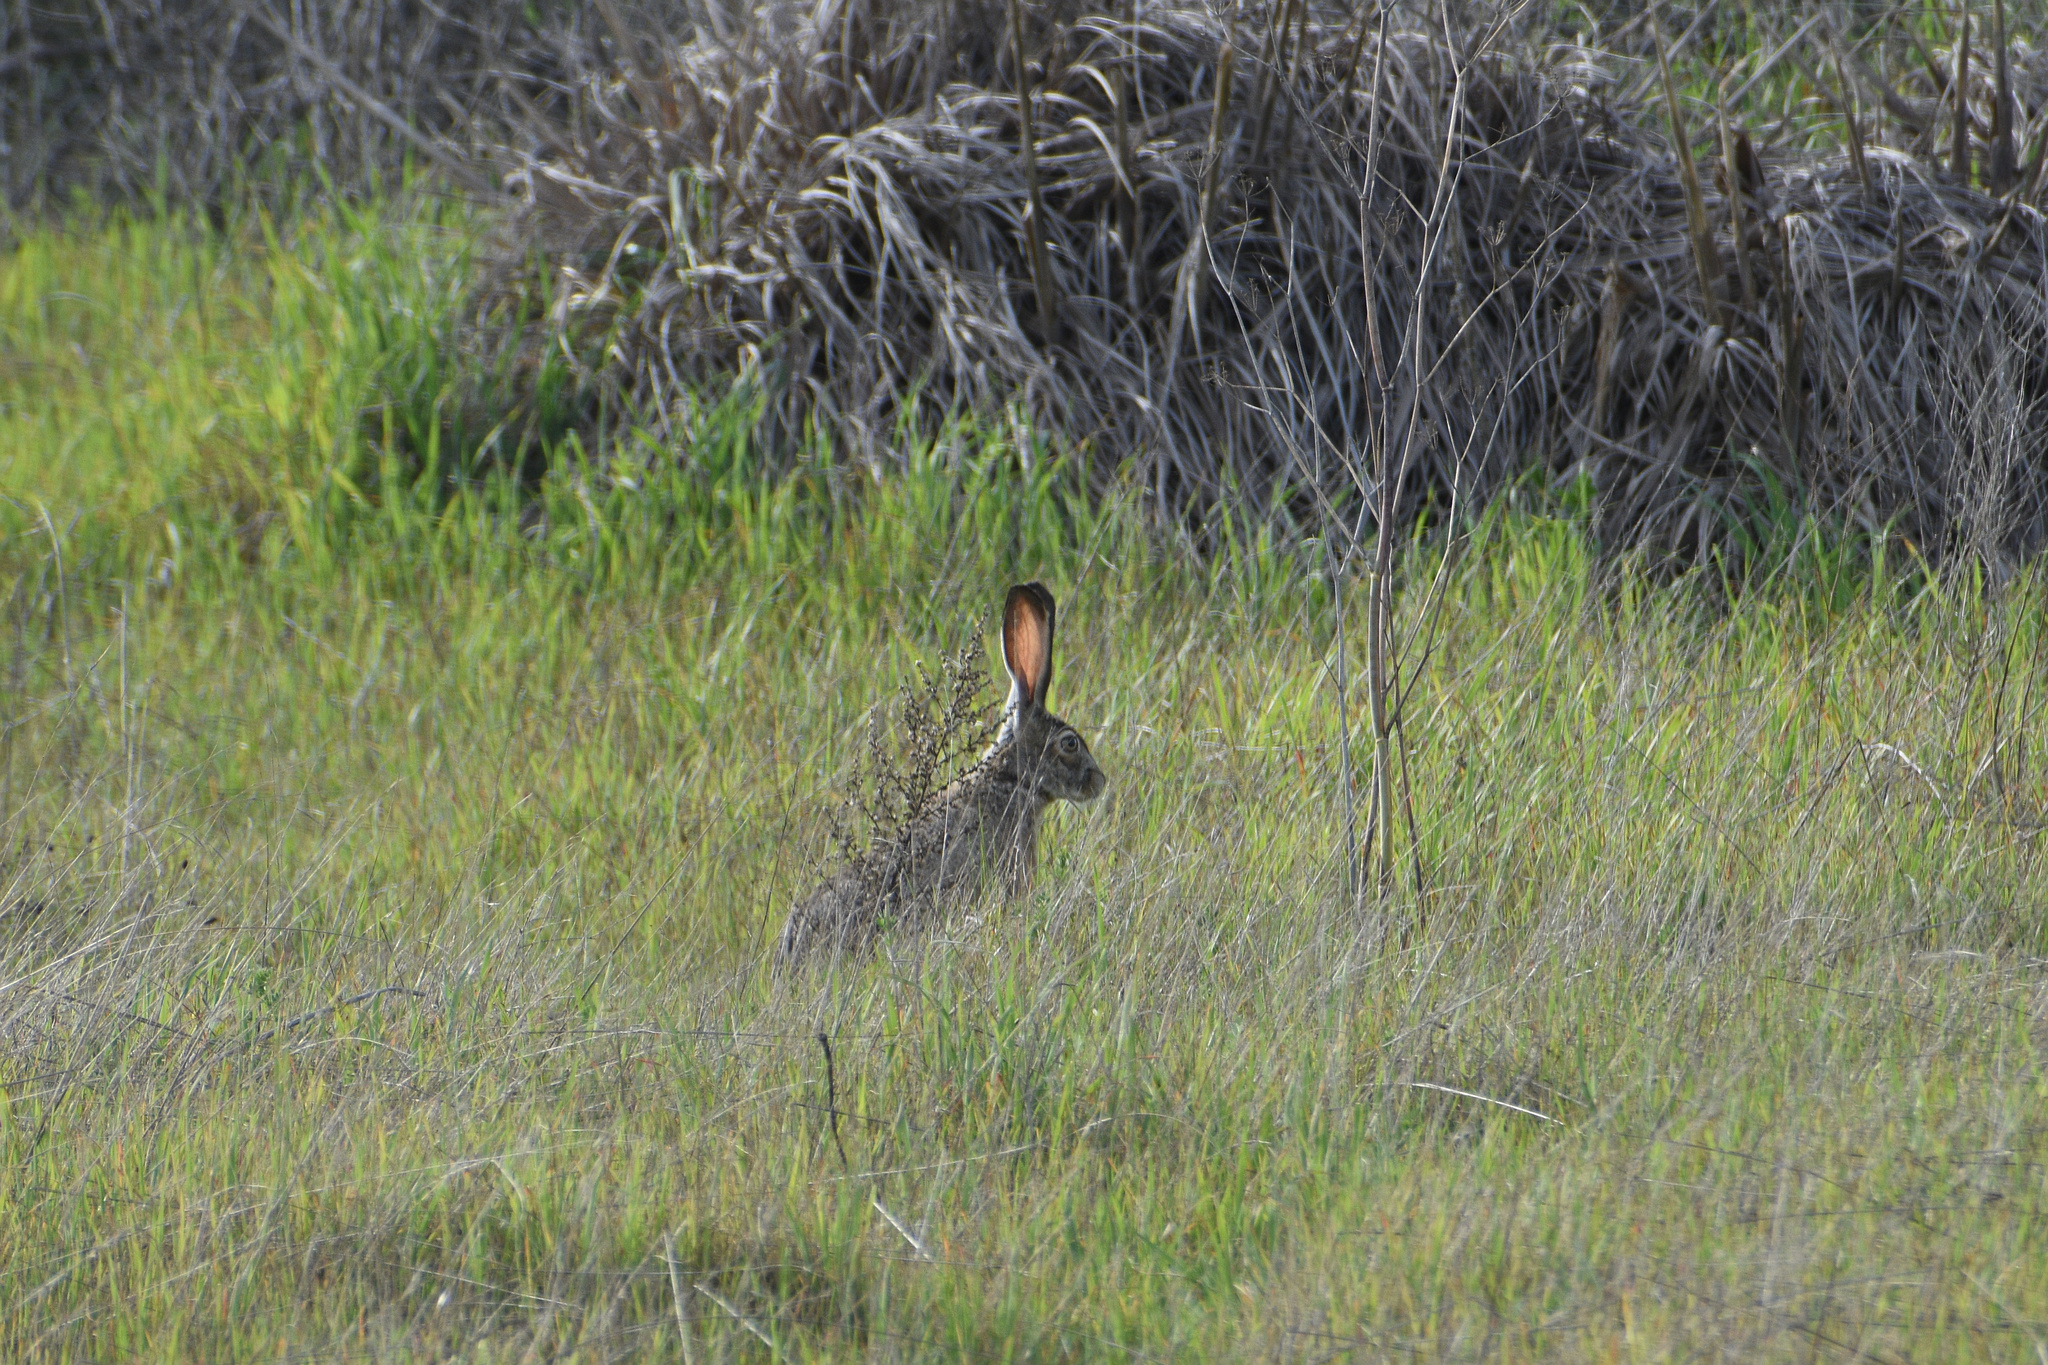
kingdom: Animalia
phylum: Chordata
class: Mammalia
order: Lagomorpha
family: Leporidae
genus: Lepus
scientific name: Lepus californicus
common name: Black-tailed jackrabbit
